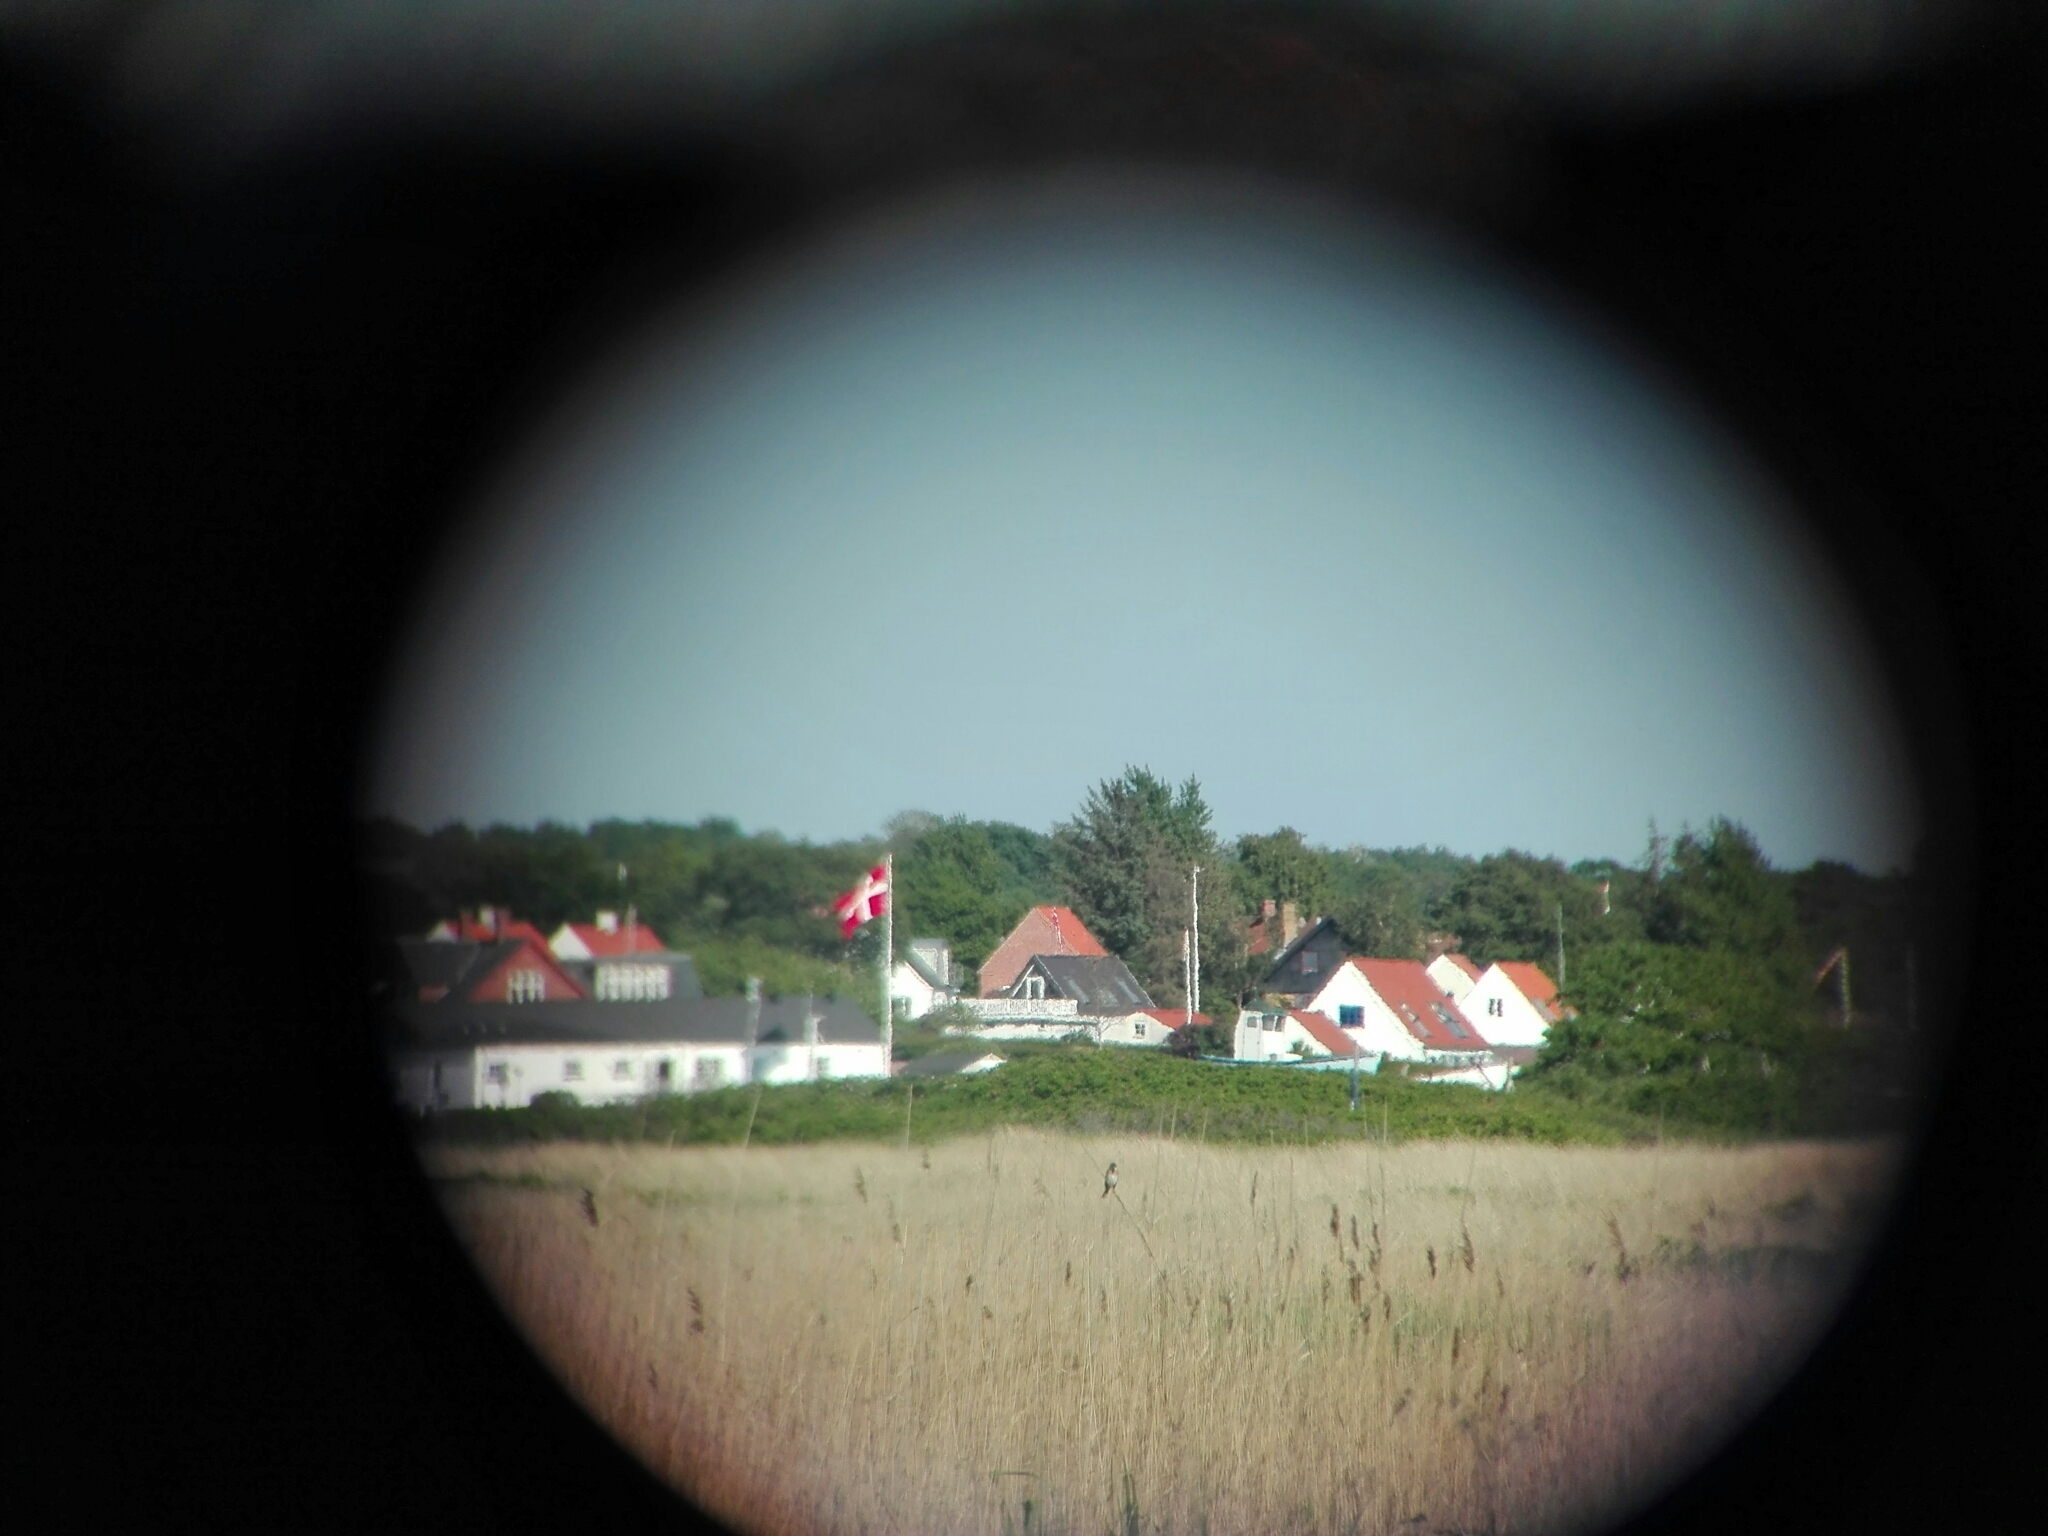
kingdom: Animalia
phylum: Chordata
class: Aves
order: Passeriformes
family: Emberizidae
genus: Emberiza
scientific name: Emberiza schoeniclus
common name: Reed bunting
